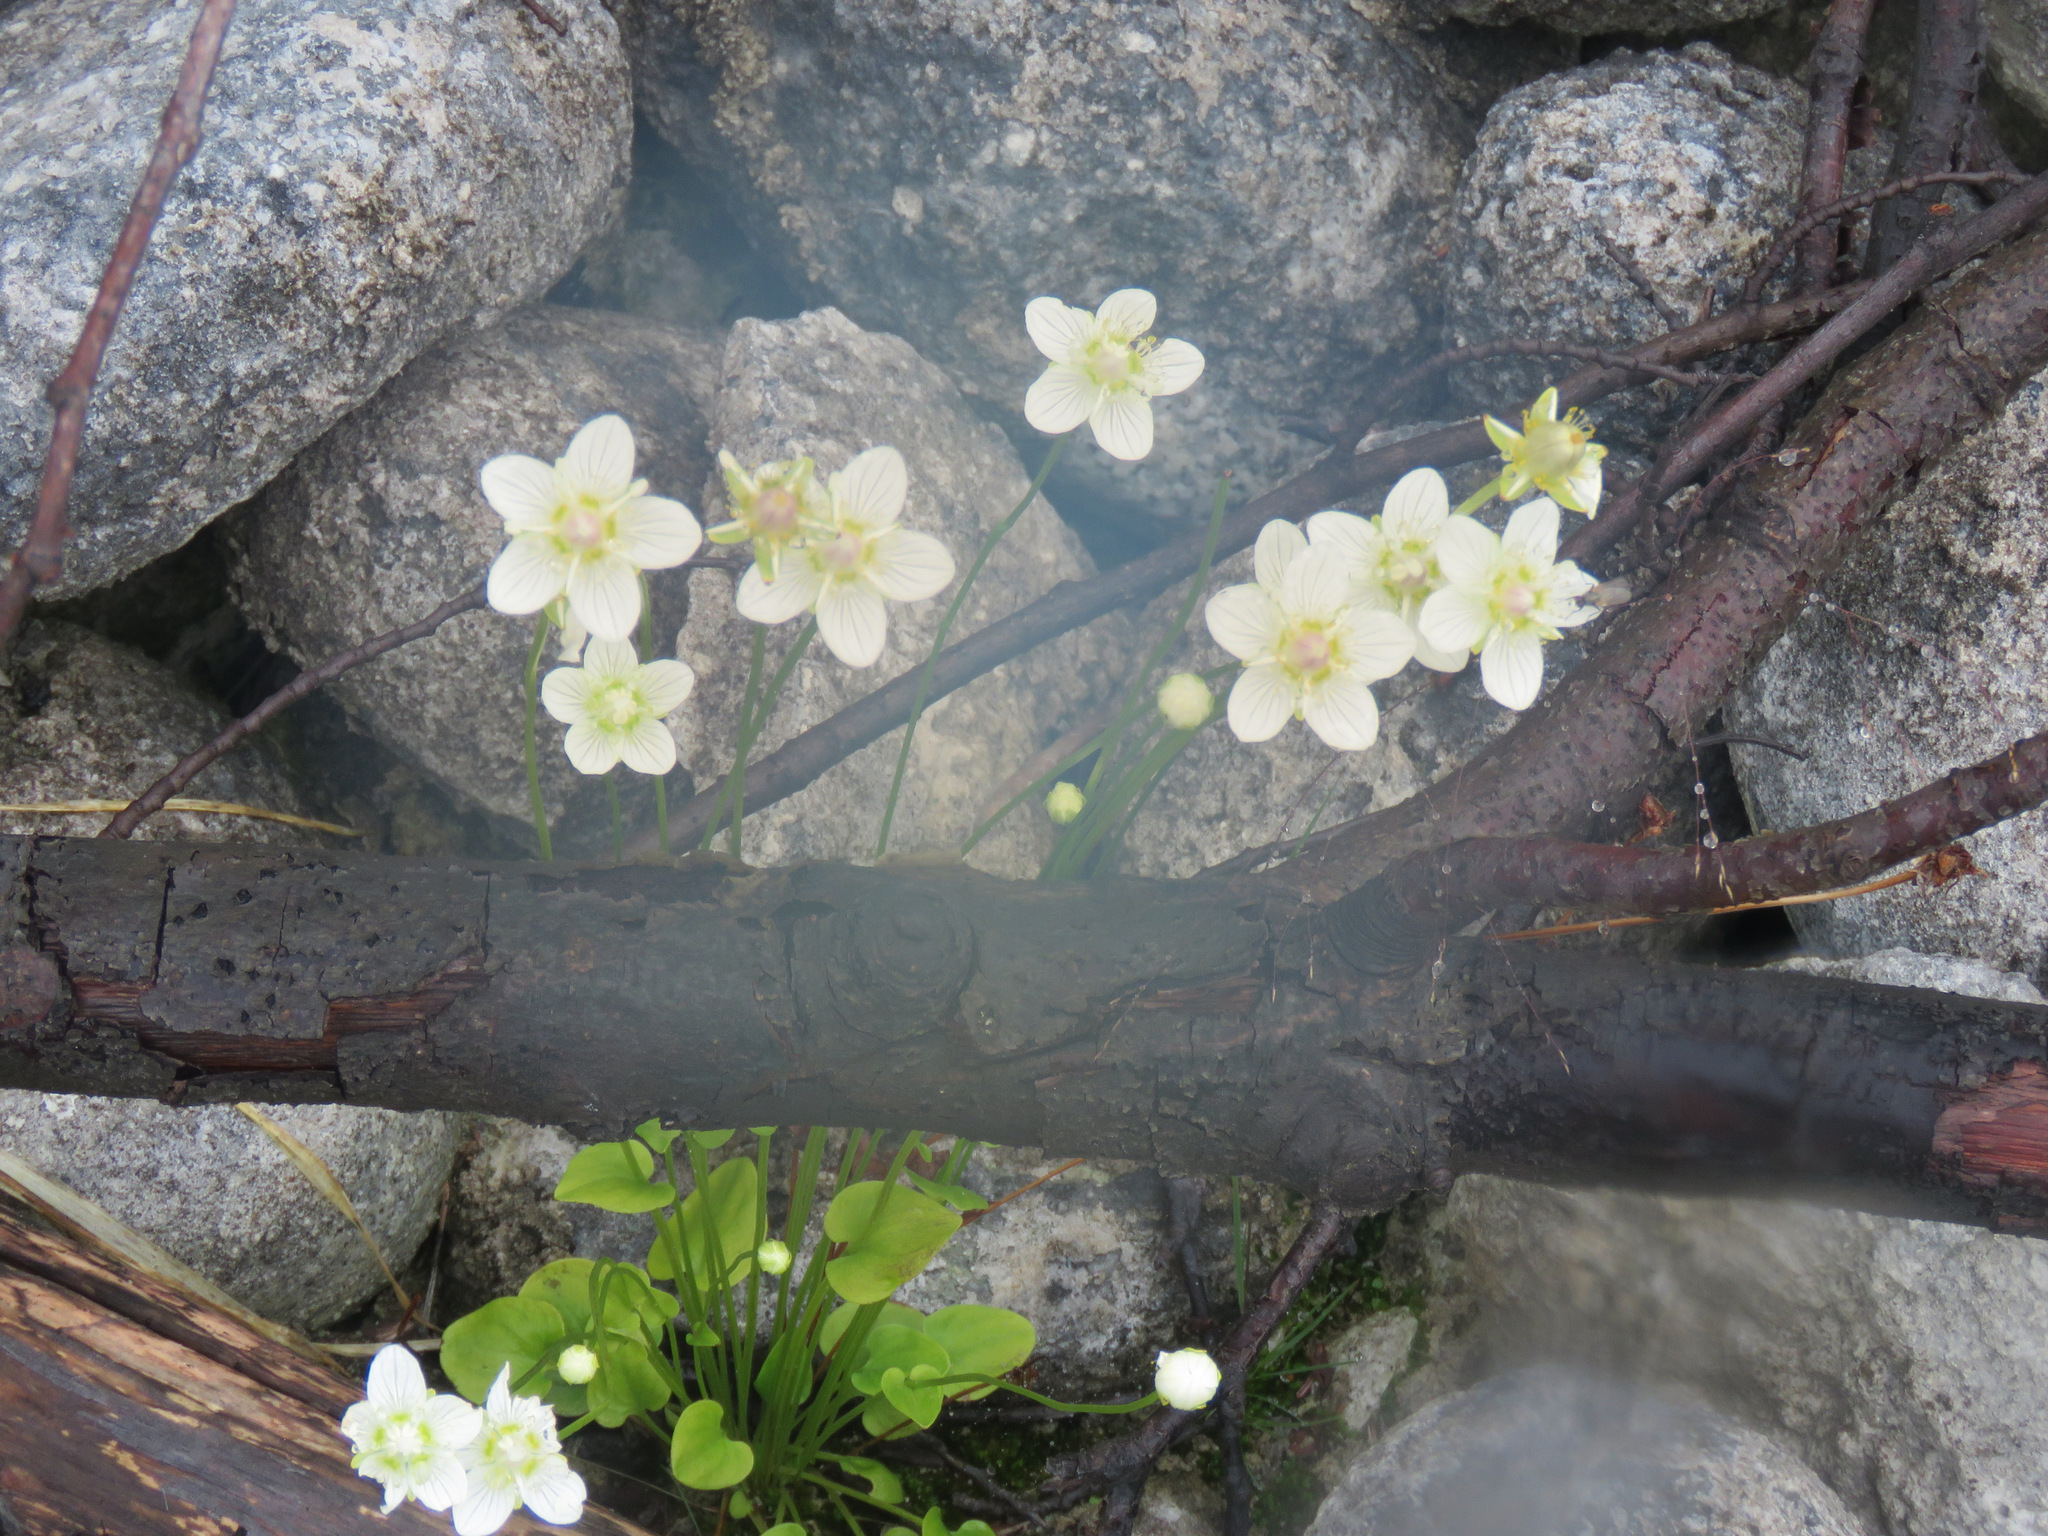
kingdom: Plantae
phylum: Tracheophyta
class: Magnoliopsida
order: Celastrales
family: Parnassiaceae
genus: Parnassia
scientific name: Parnassia palustris
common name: Grass-of-parnassus
